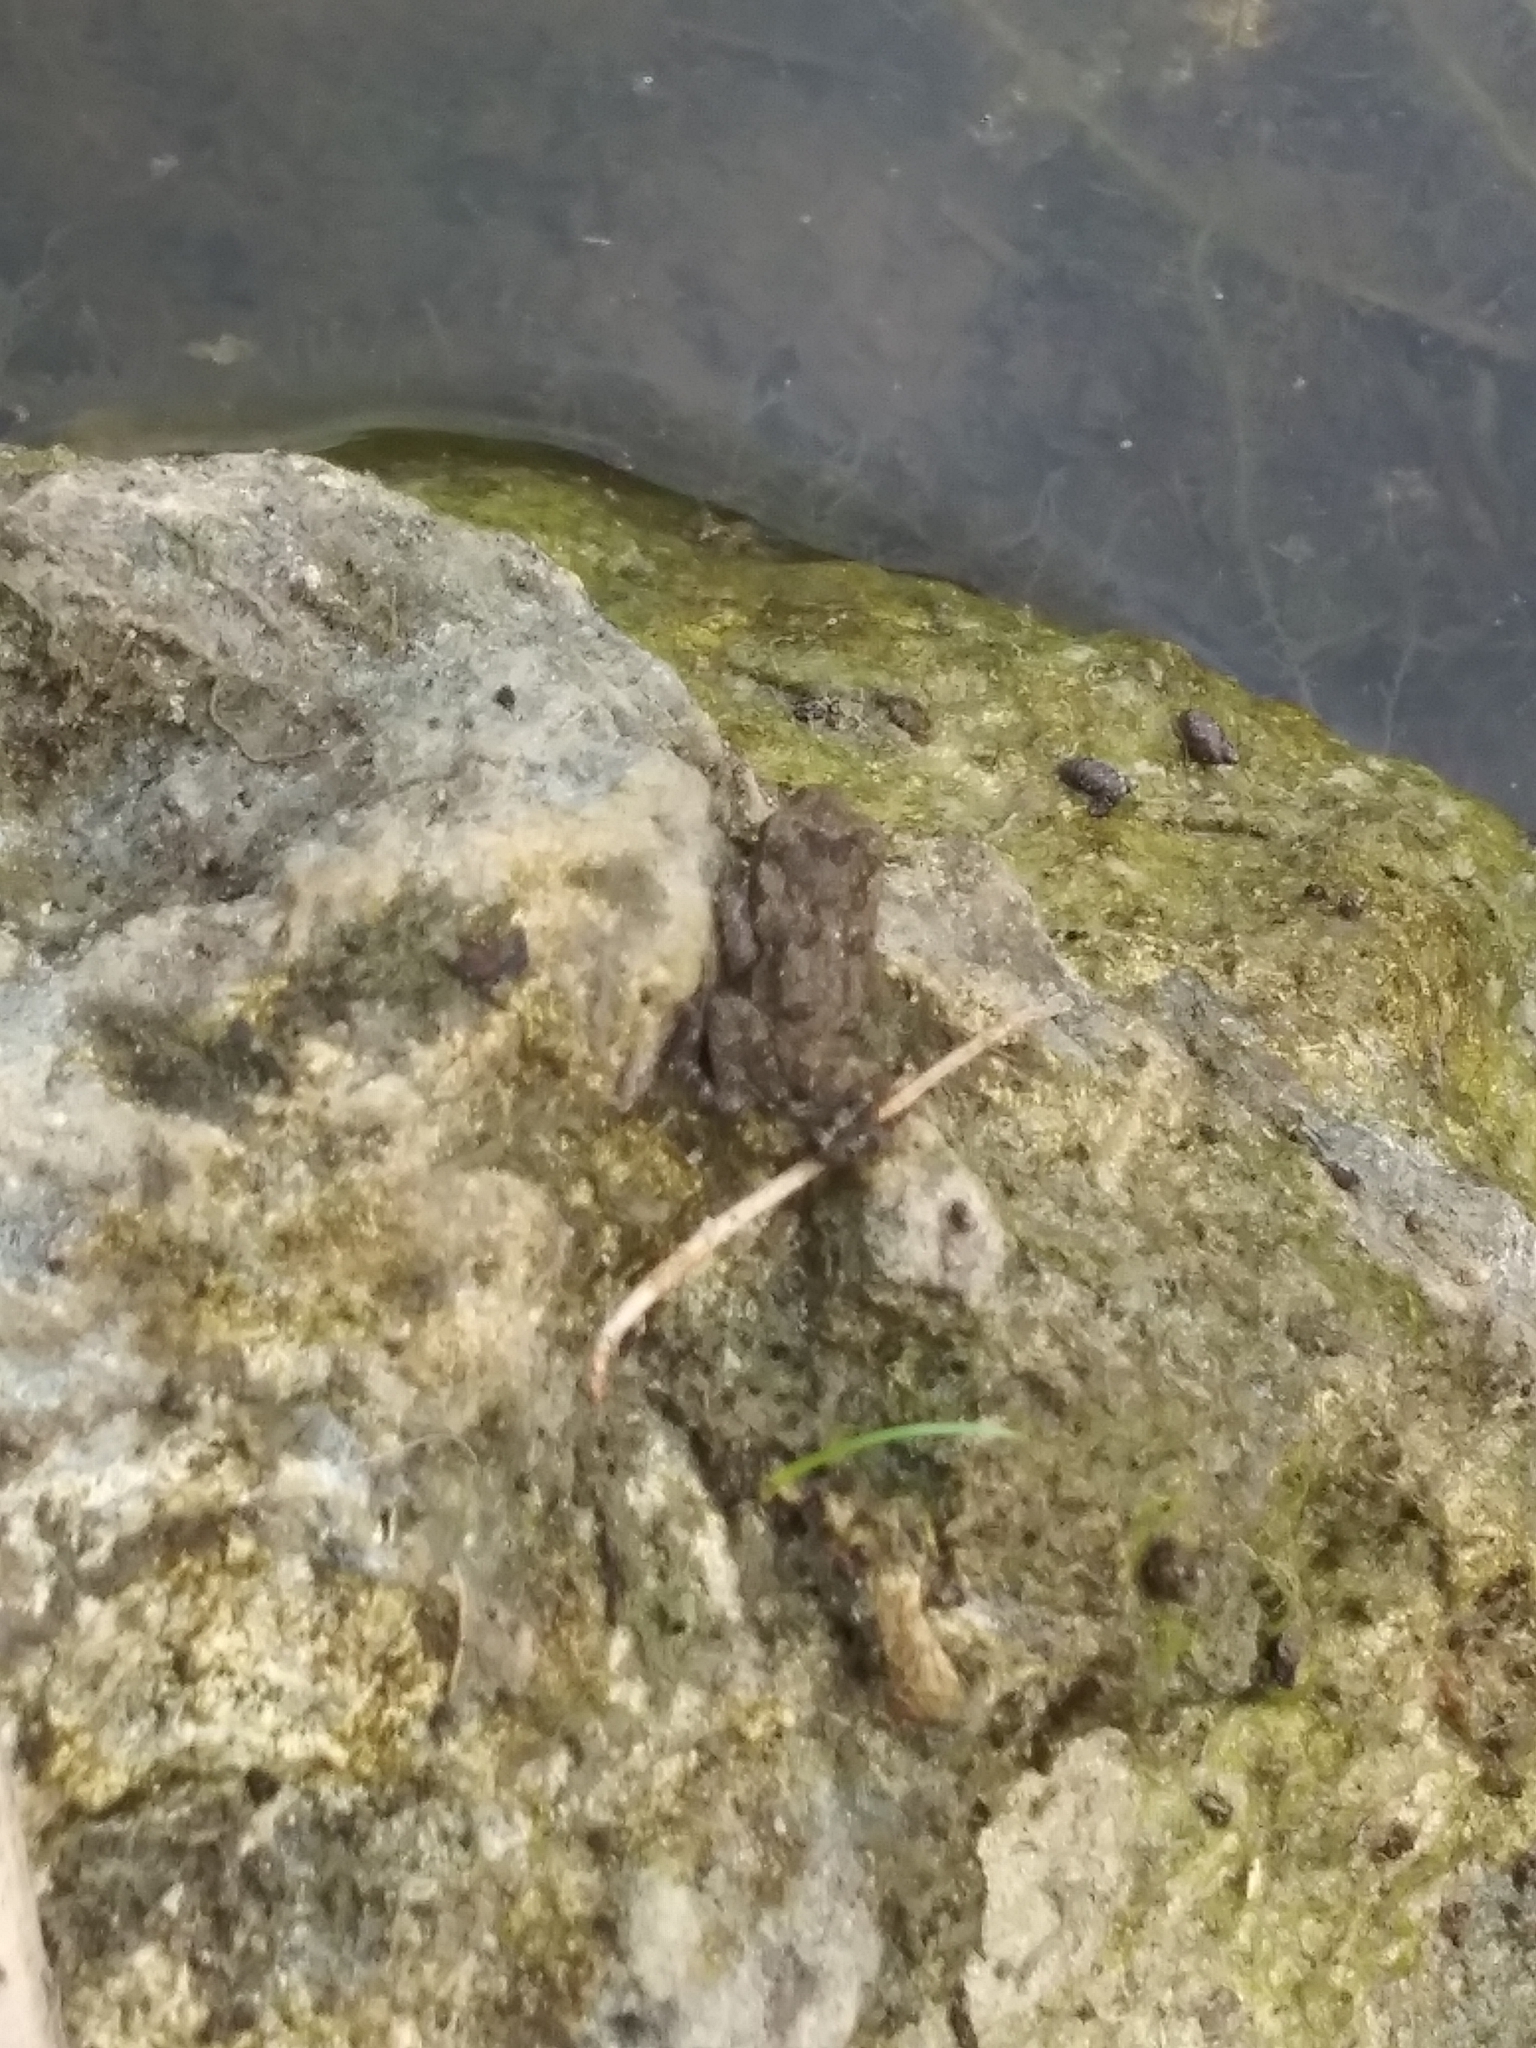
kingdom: Animalia
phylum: Chordata
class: Amphibia
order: Anura
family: Bufonidae
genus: Anaxyrus
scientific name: Anaxyrus terrestris
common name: Southern toad
